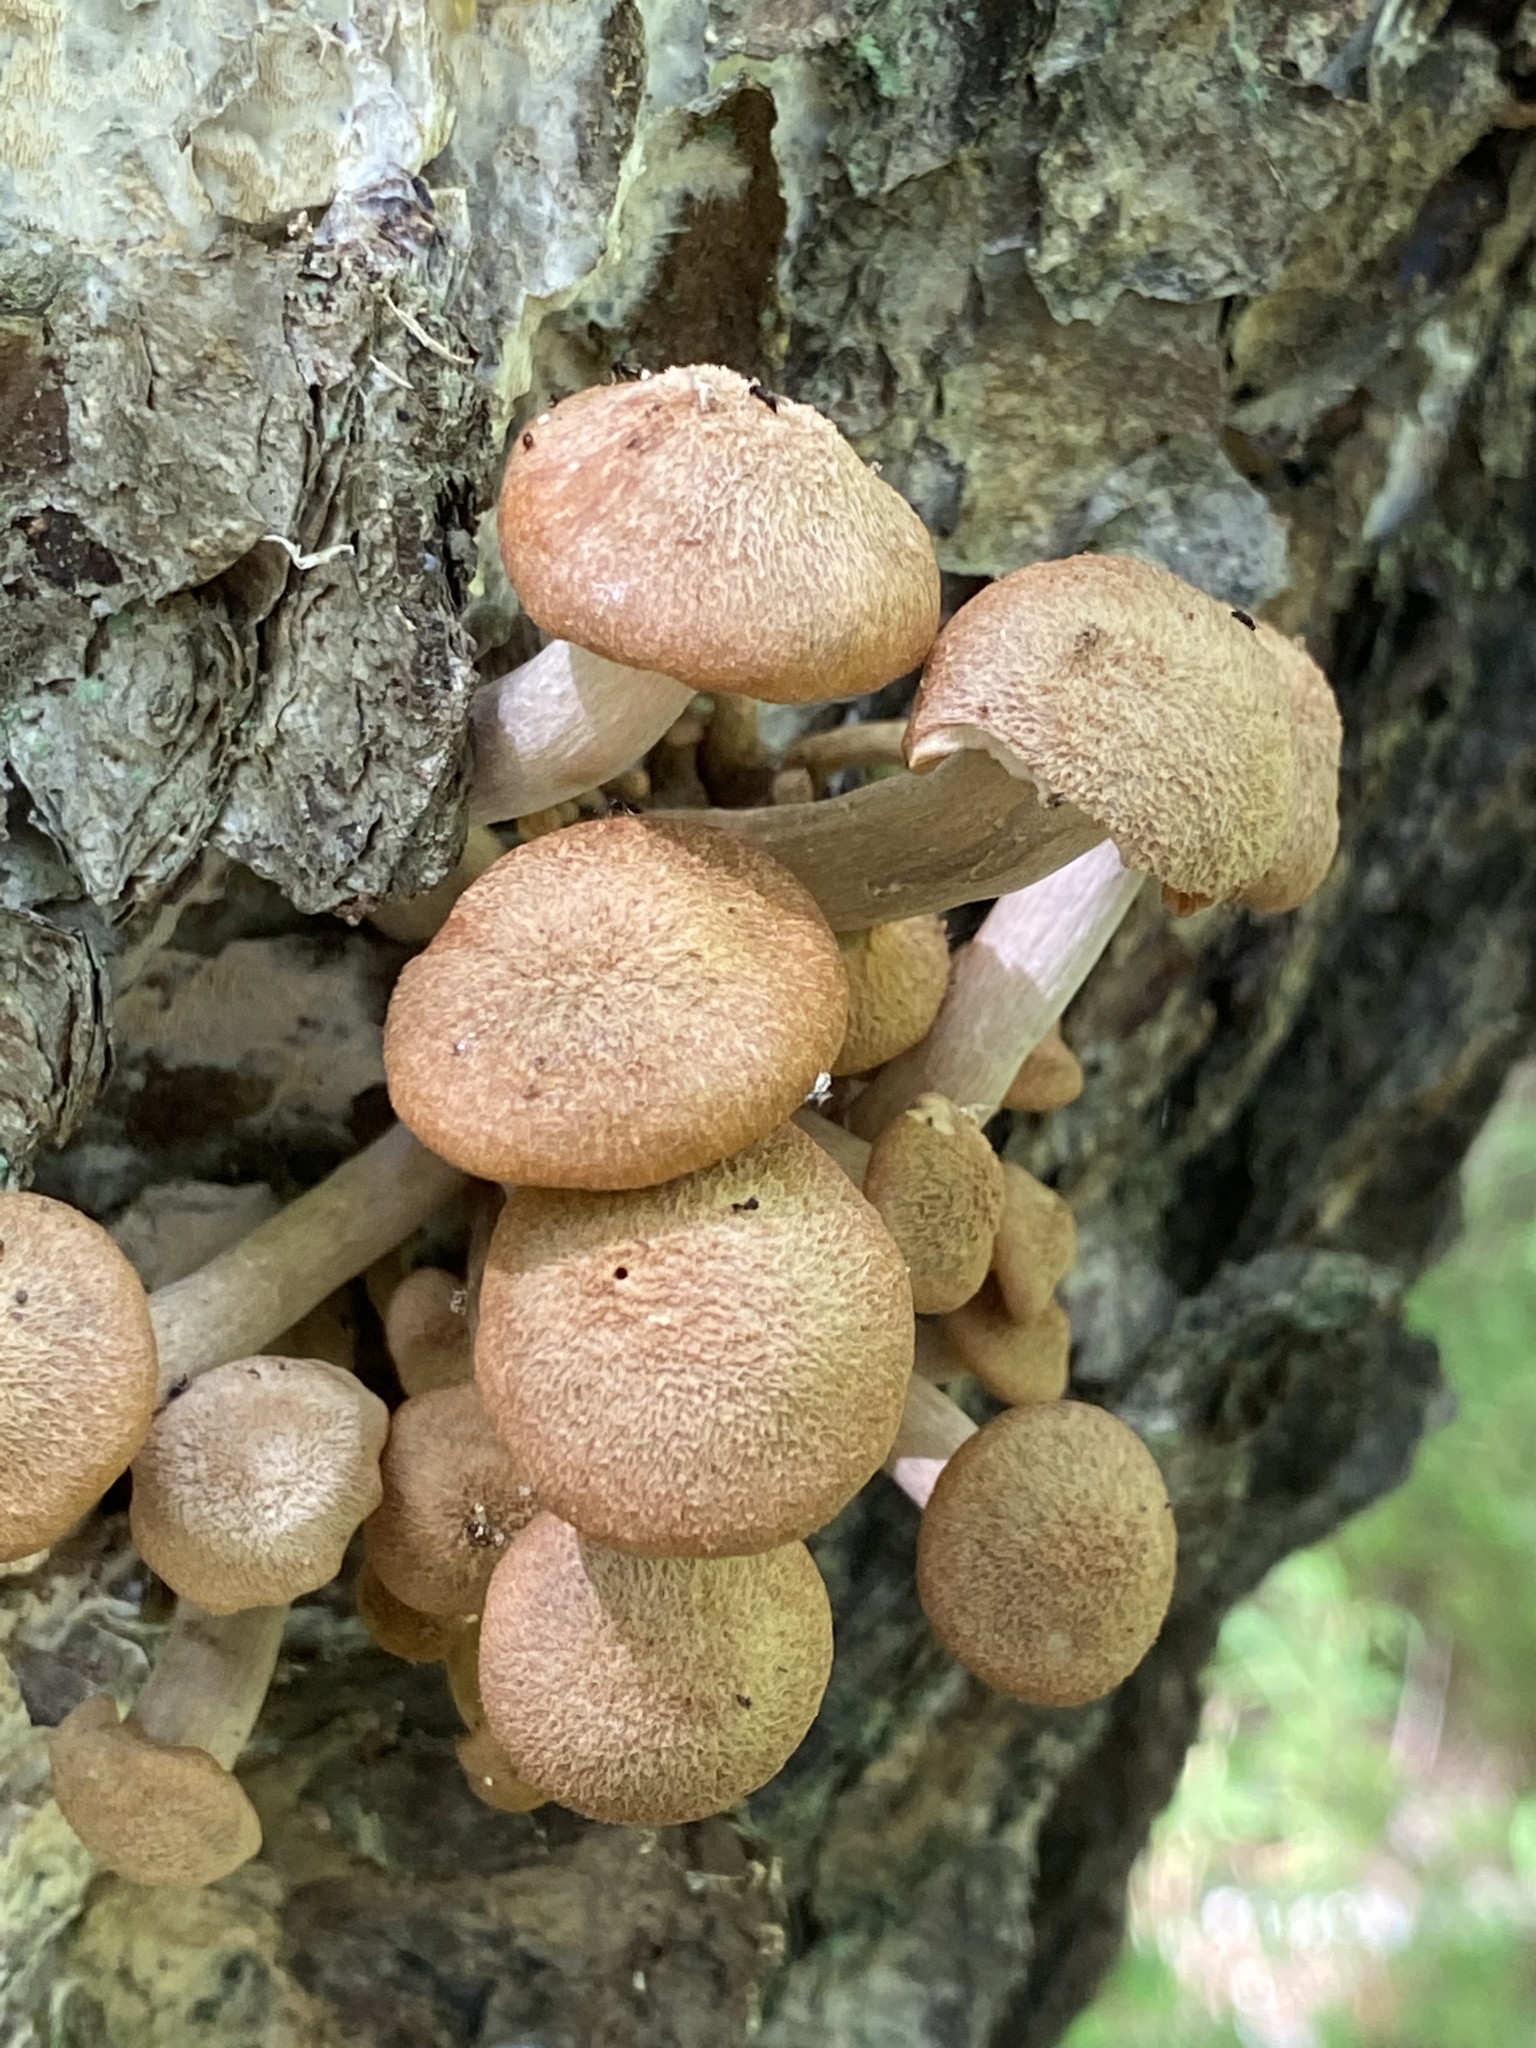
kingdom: Fungi
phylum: Basidiomycota
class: Agaricomycetes
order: Agaricales
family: Physalacriaceae
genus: Desarmillaria
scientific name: Desarmillaria caespitosa
